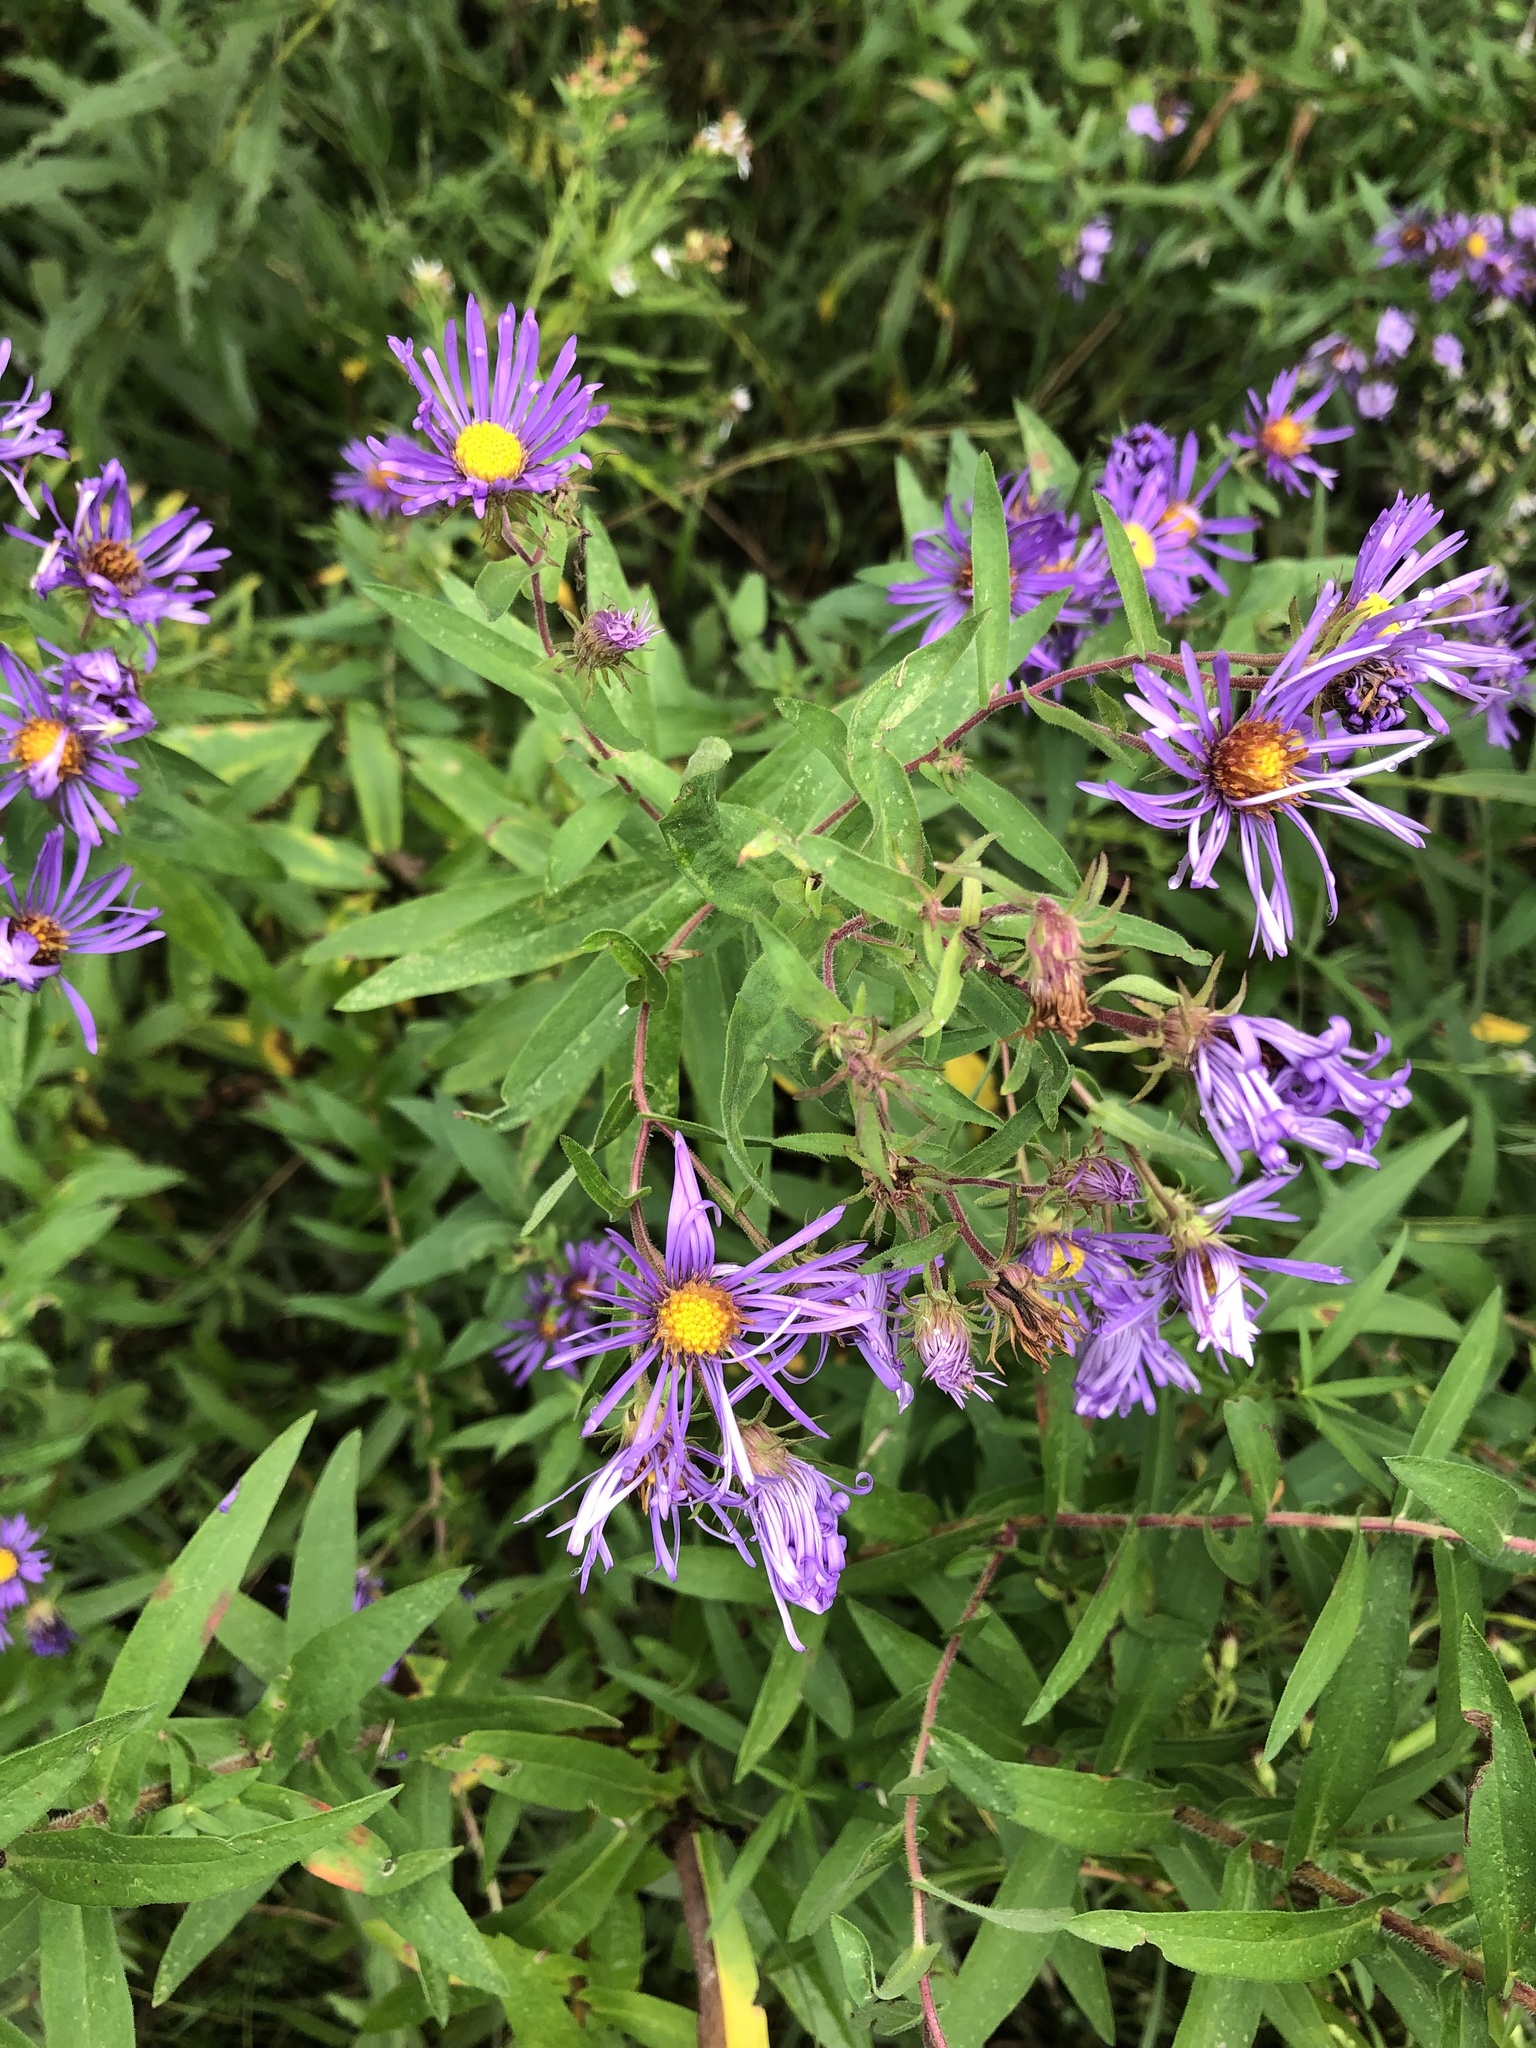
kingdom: Plantae
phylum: Tracheophyta
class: Magnoliopsida
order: Asterales
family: Asteraceae
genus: Symphyotrichum
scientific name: Symphyotrichum novae-angliae
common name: Michaelmas daisy
